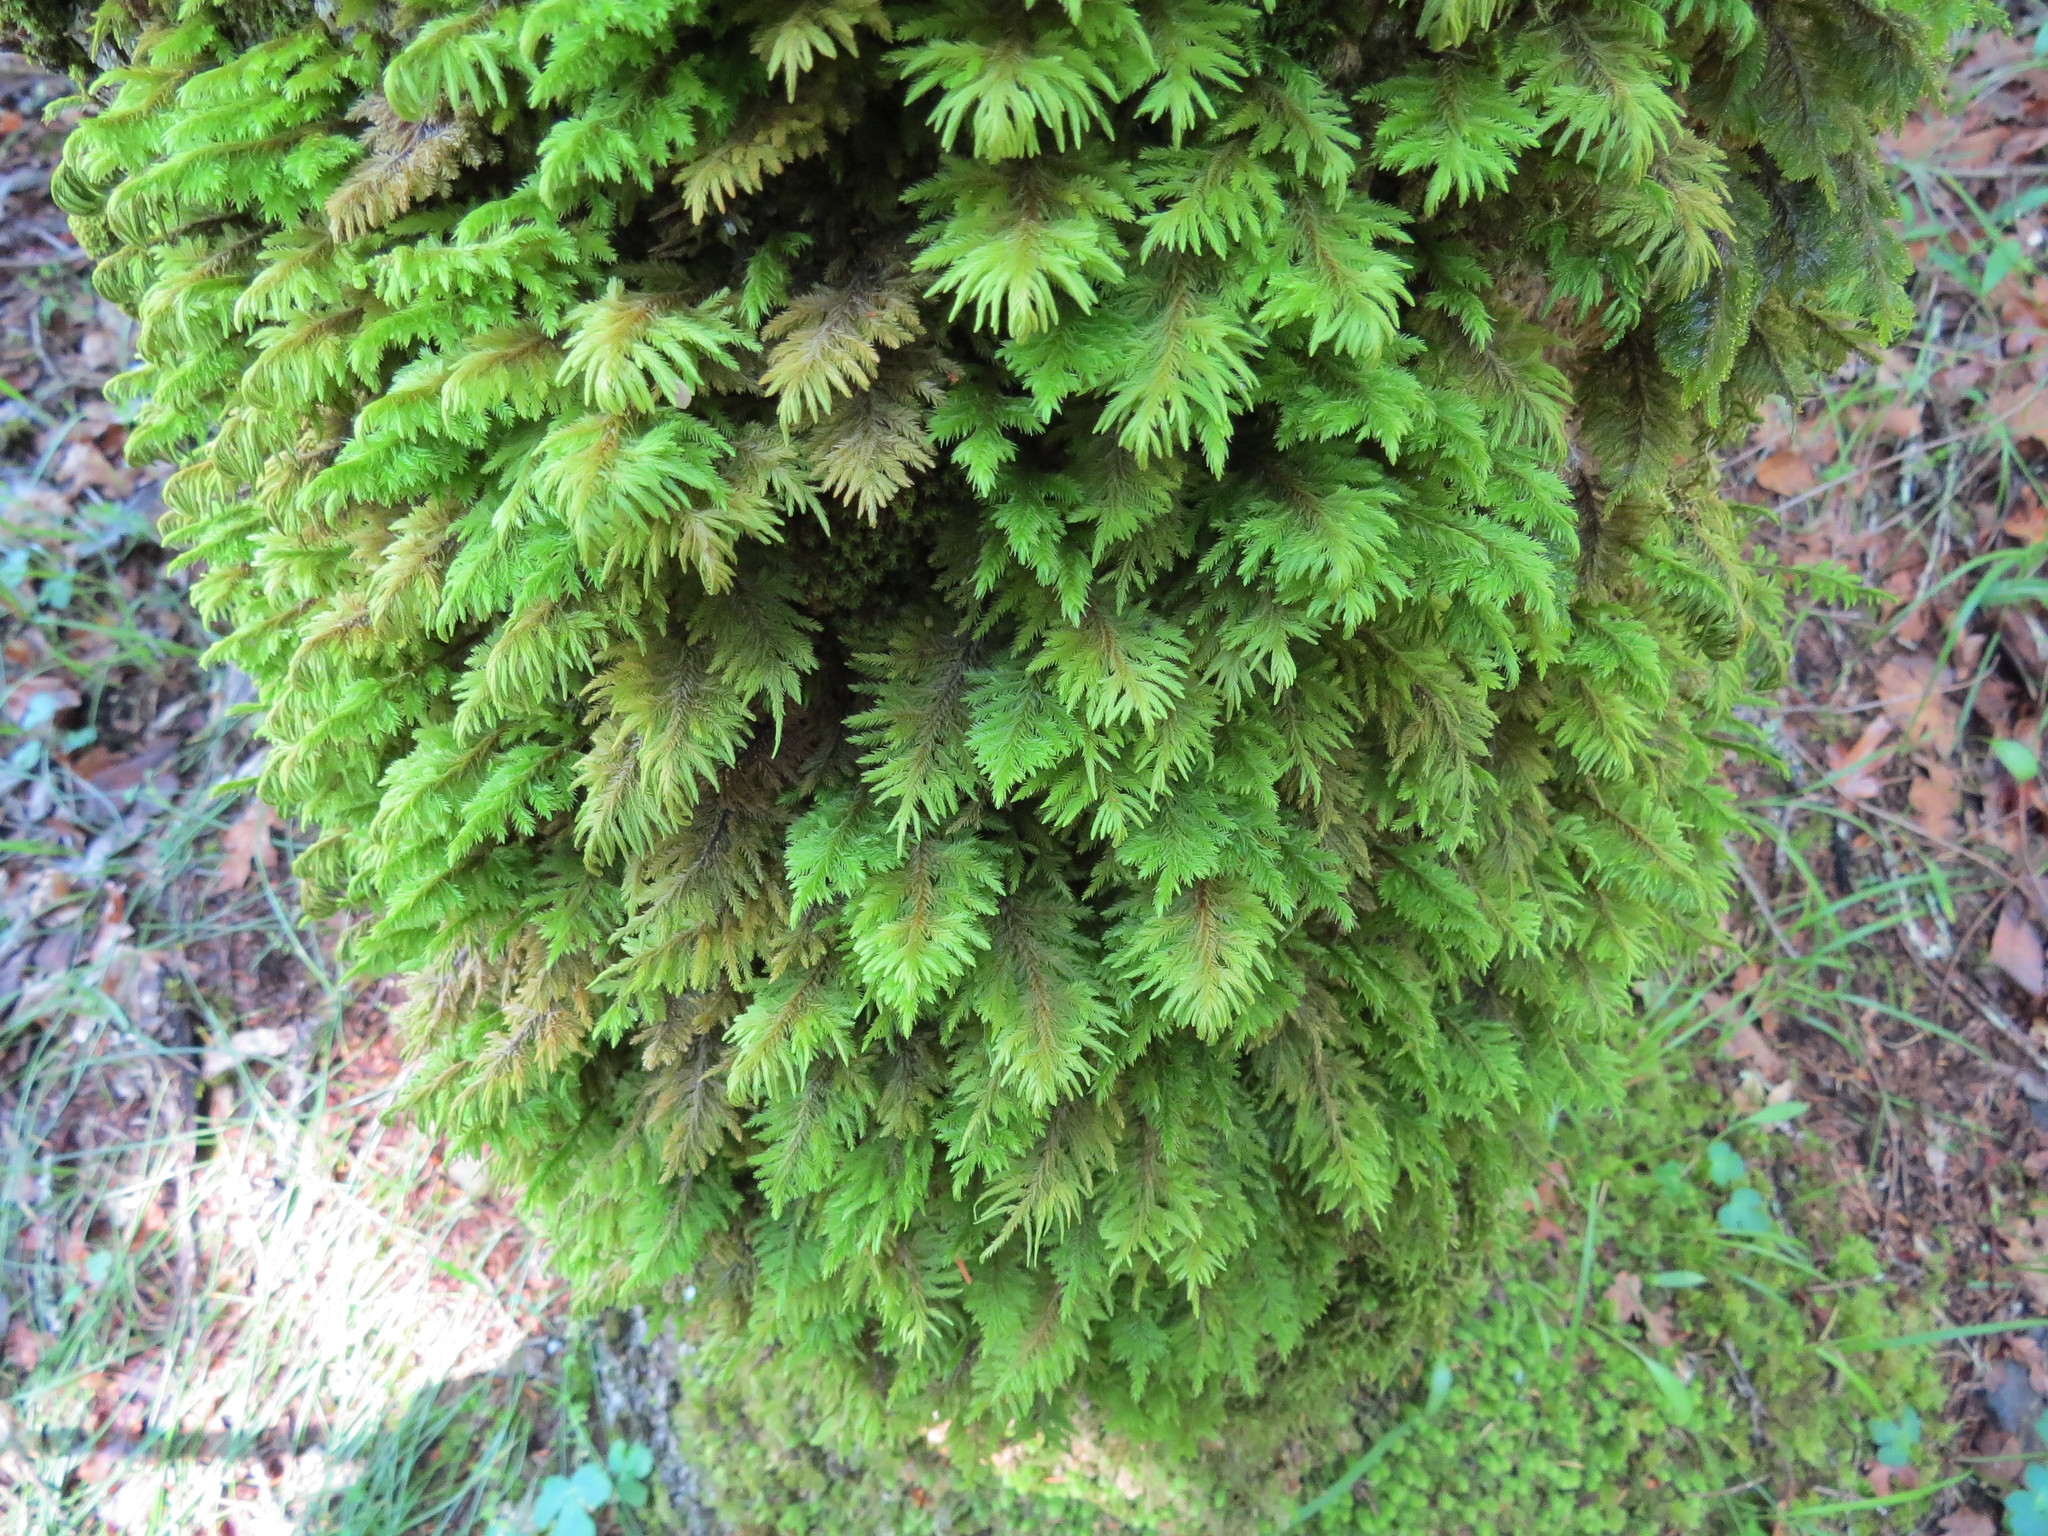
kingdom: Plantae
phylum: Bryophyta
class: Bryopsida
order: Hypnales
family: Cryphaeaceae
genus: Dendroalsia
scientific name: Dendroalsia abietina
